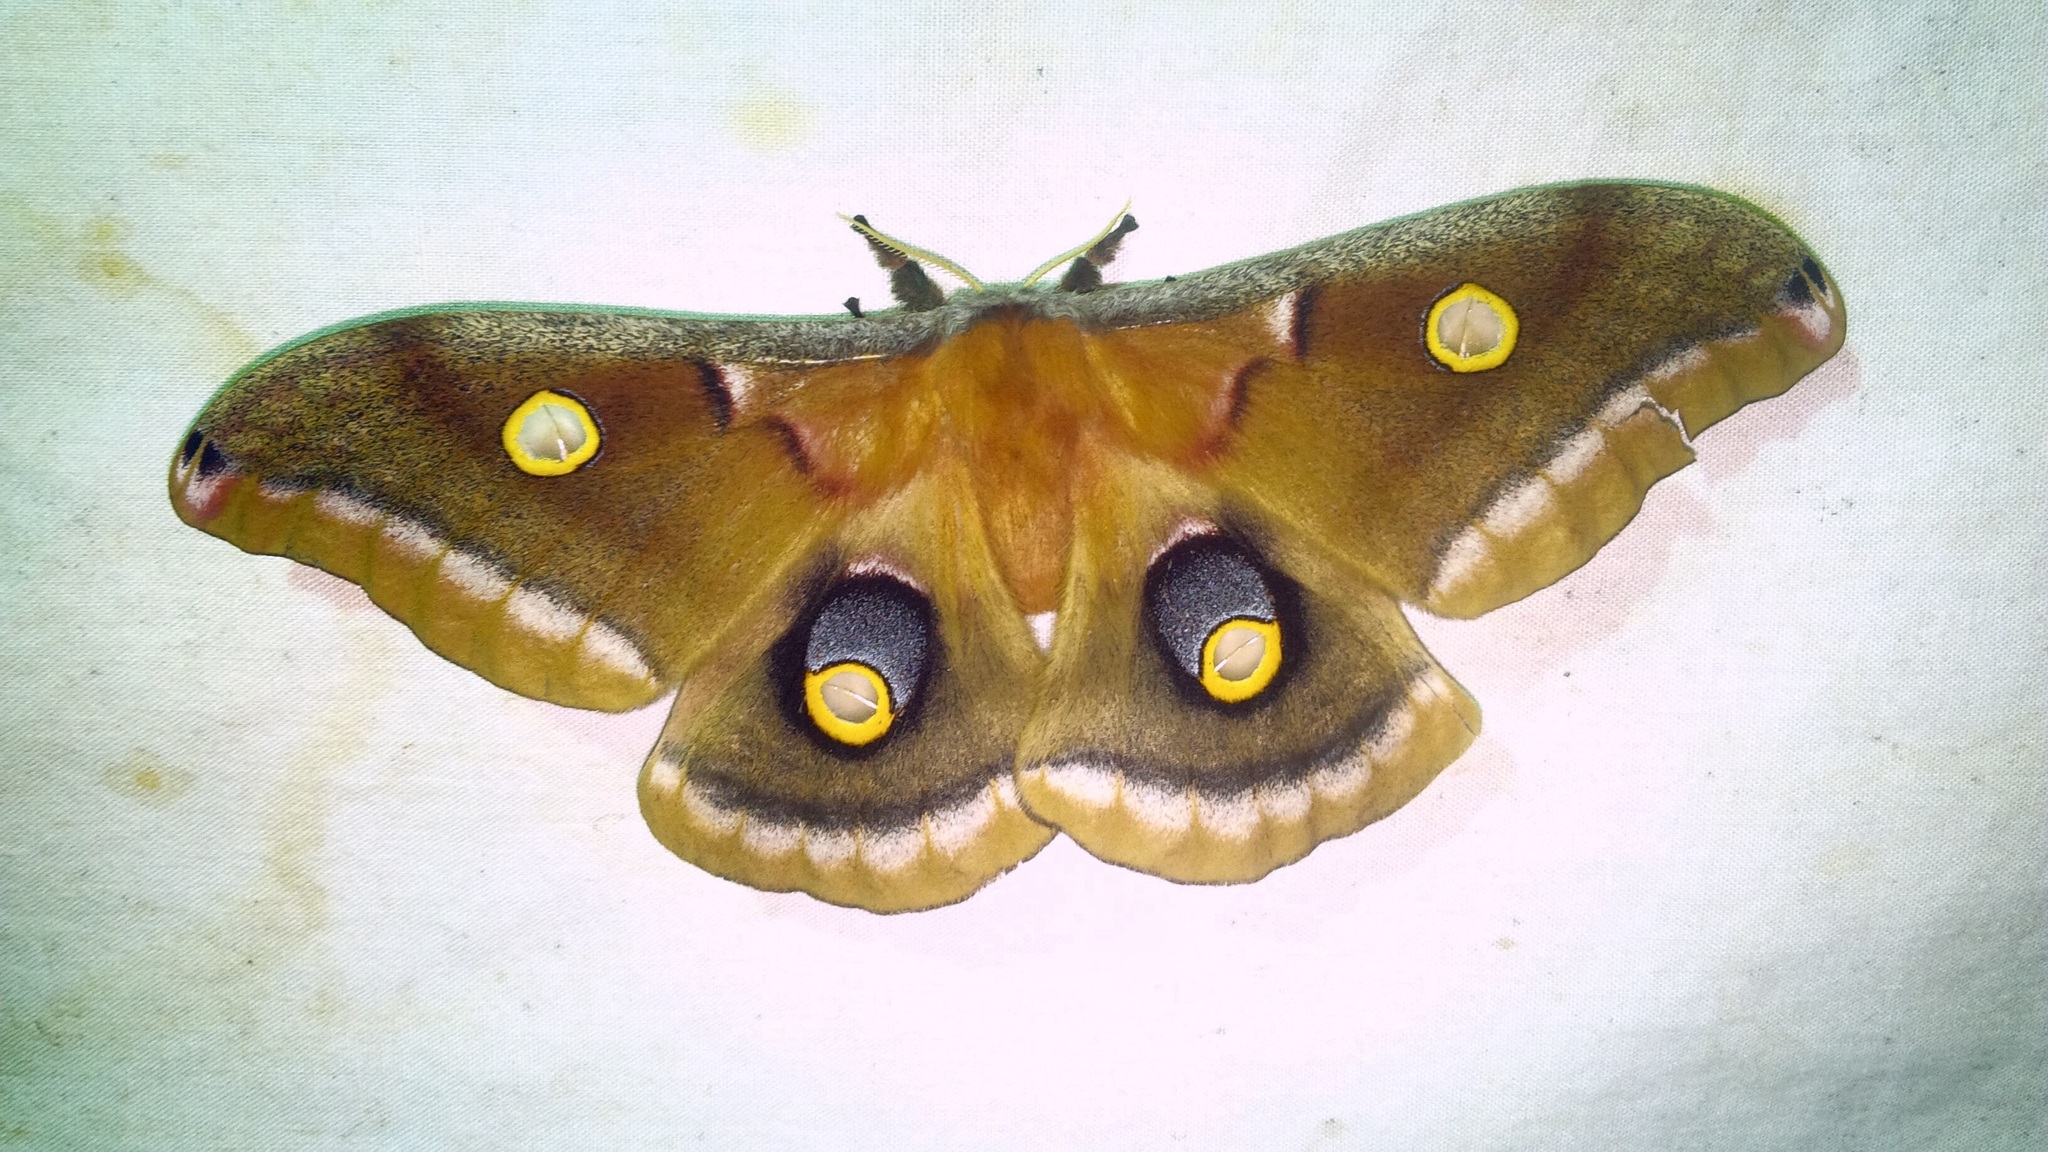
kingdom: Animalia
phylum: Arthropoda
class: Insecta
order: Lepidoptera
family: Saturniidae
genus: Antheraea
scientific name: Antheraea polyphemus
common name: Polyphemus moth
